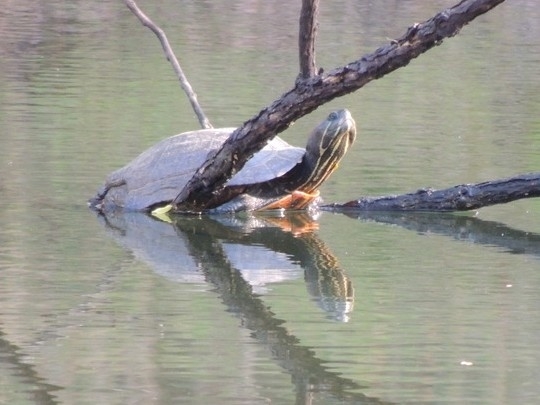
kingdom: Animalia
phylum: Chordata
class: Testudines
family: Emydidae
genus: Trachemys
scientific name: Trachemys scripta
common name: Slider
